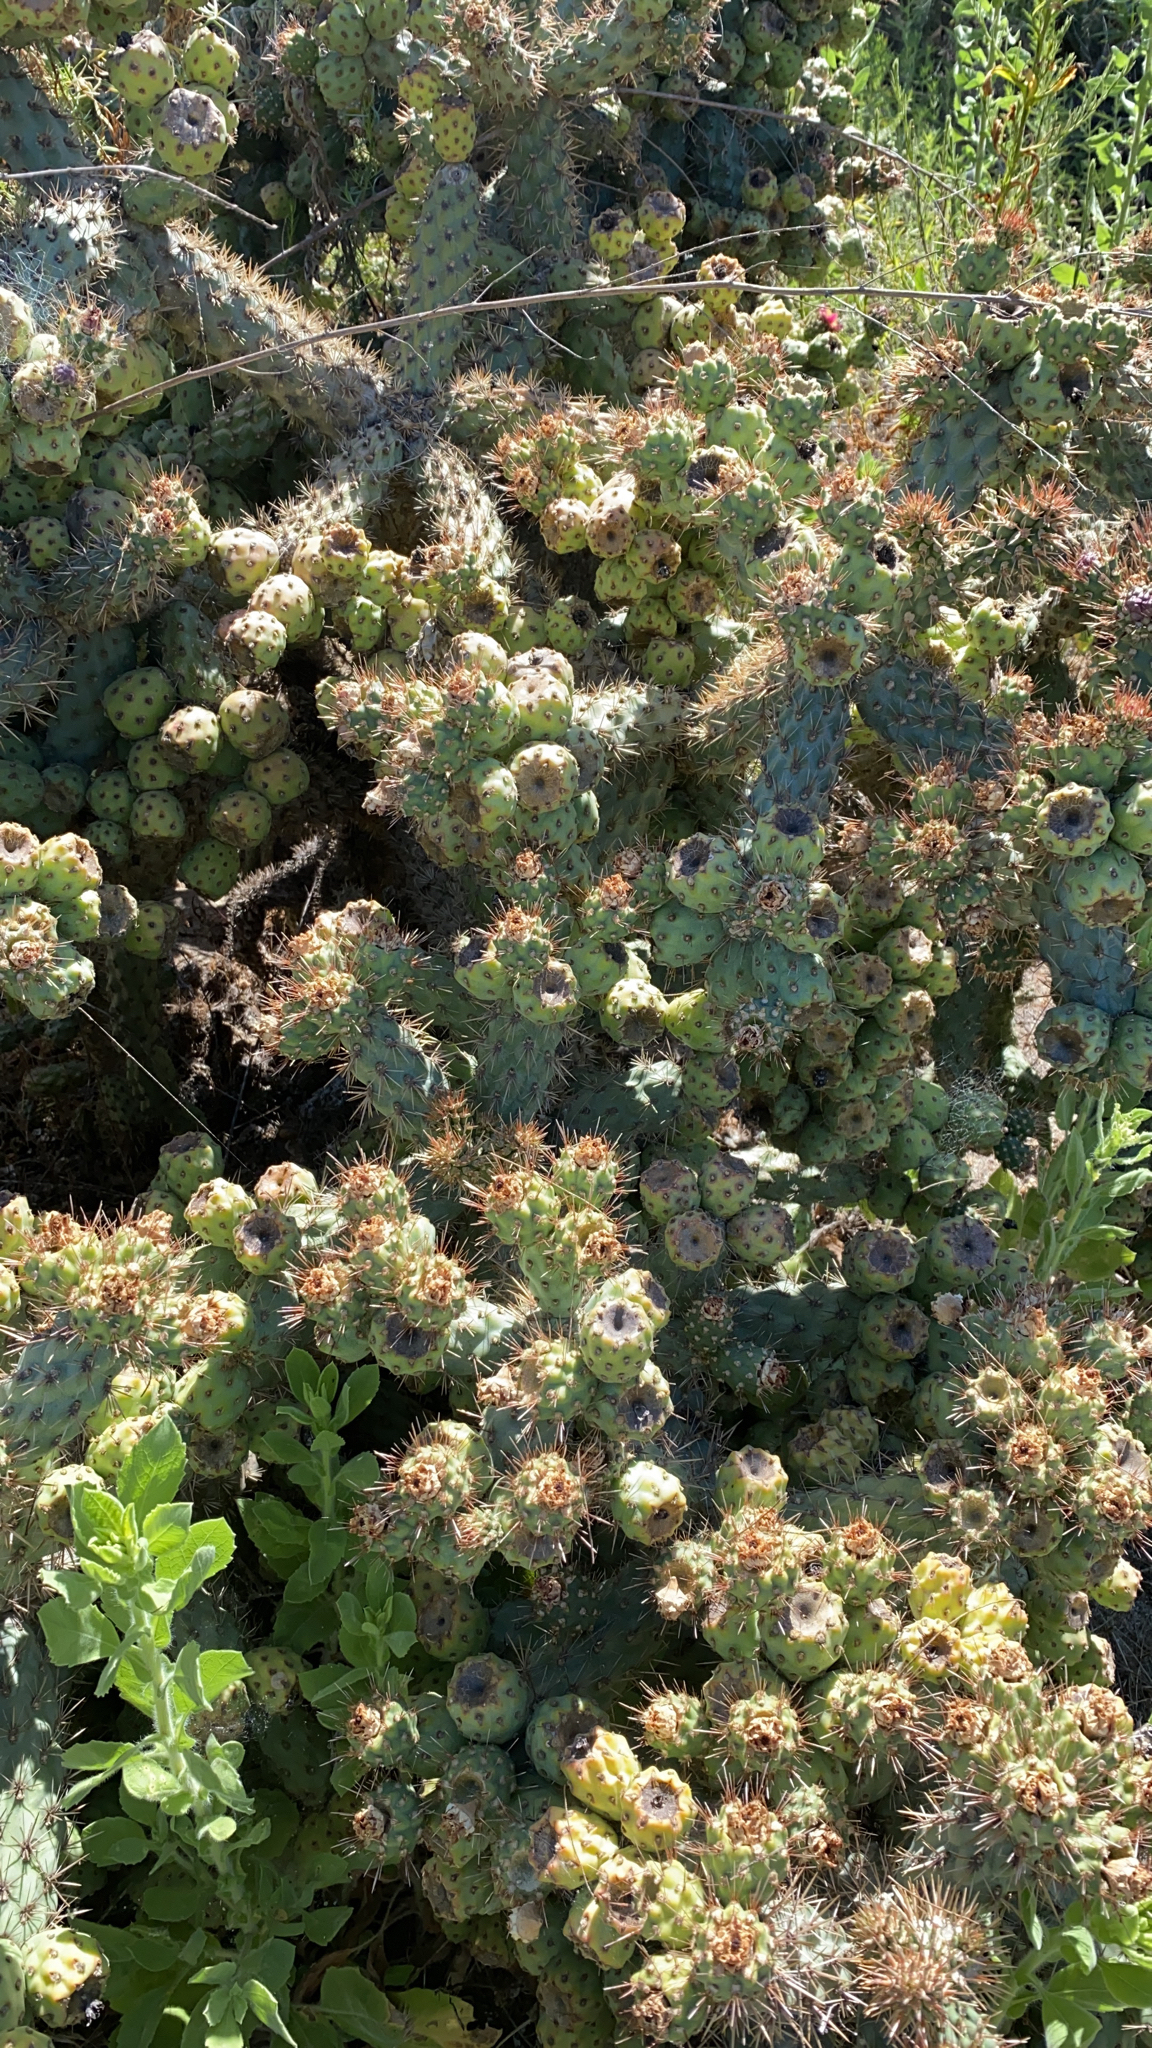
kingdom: Plantae
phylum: Tracheophyta
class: Magnoliopsida
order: Caryophyllales
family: Cactaceae
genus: Cylindropuntia
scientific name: Cylindropuntia prolifera
